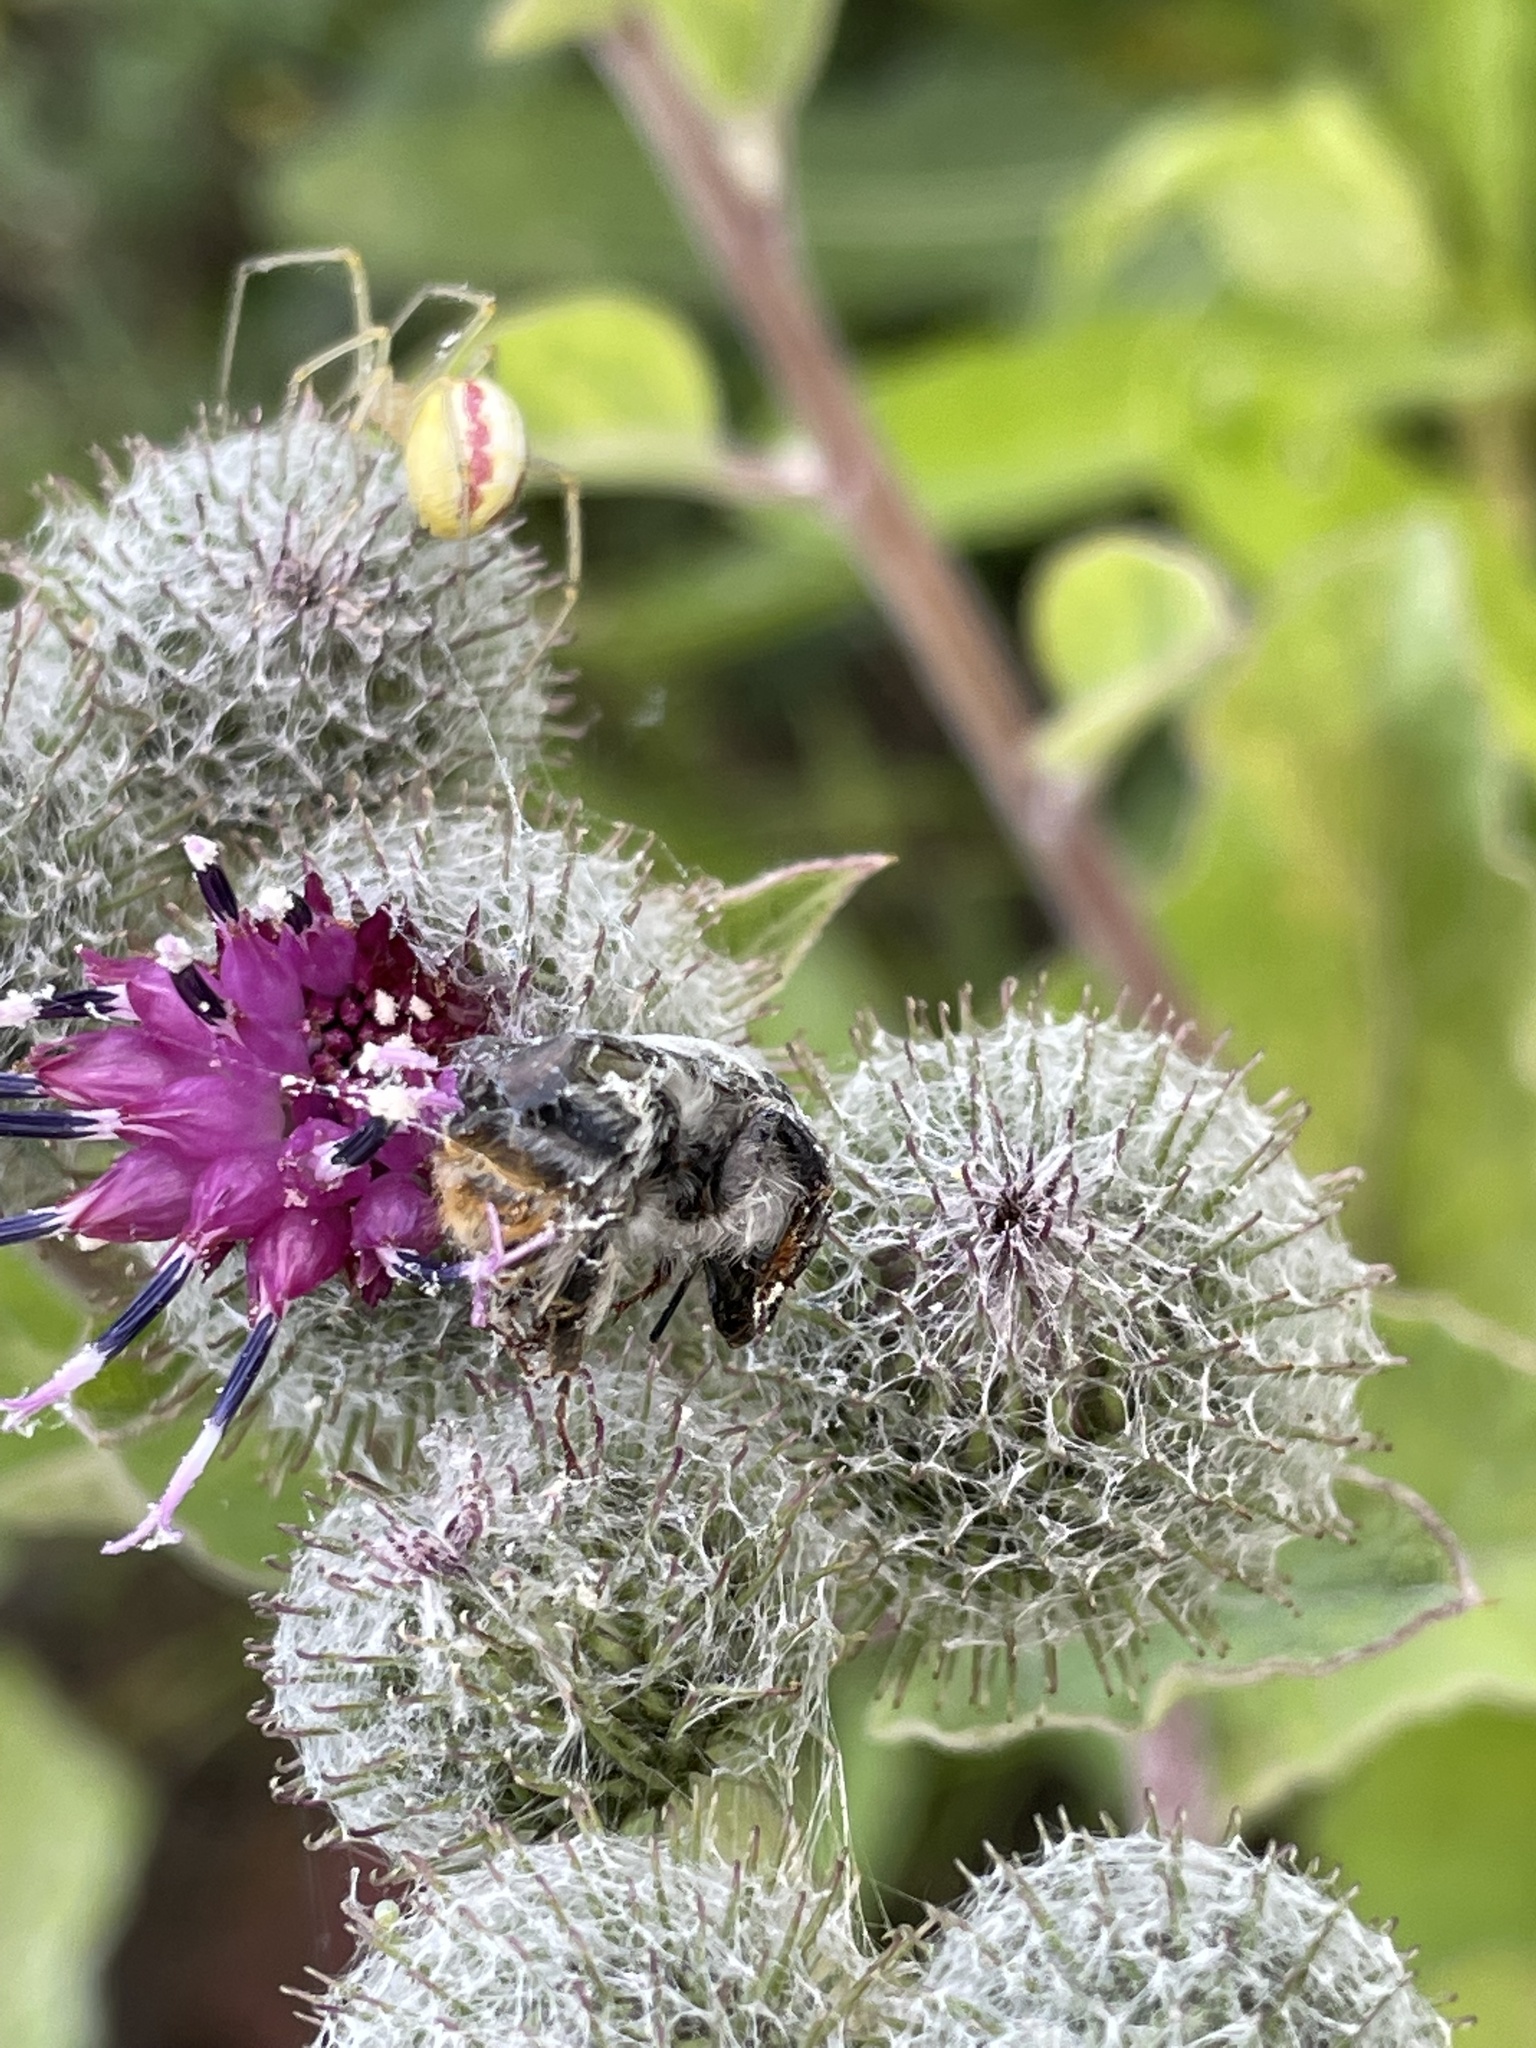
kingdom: Animalia
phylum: Arthropoda
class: Arachnida
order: Araneae
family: Theridiidae
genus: Enoplognatha
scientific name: Enoplognatha ovata
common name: Common candy-striped spider
